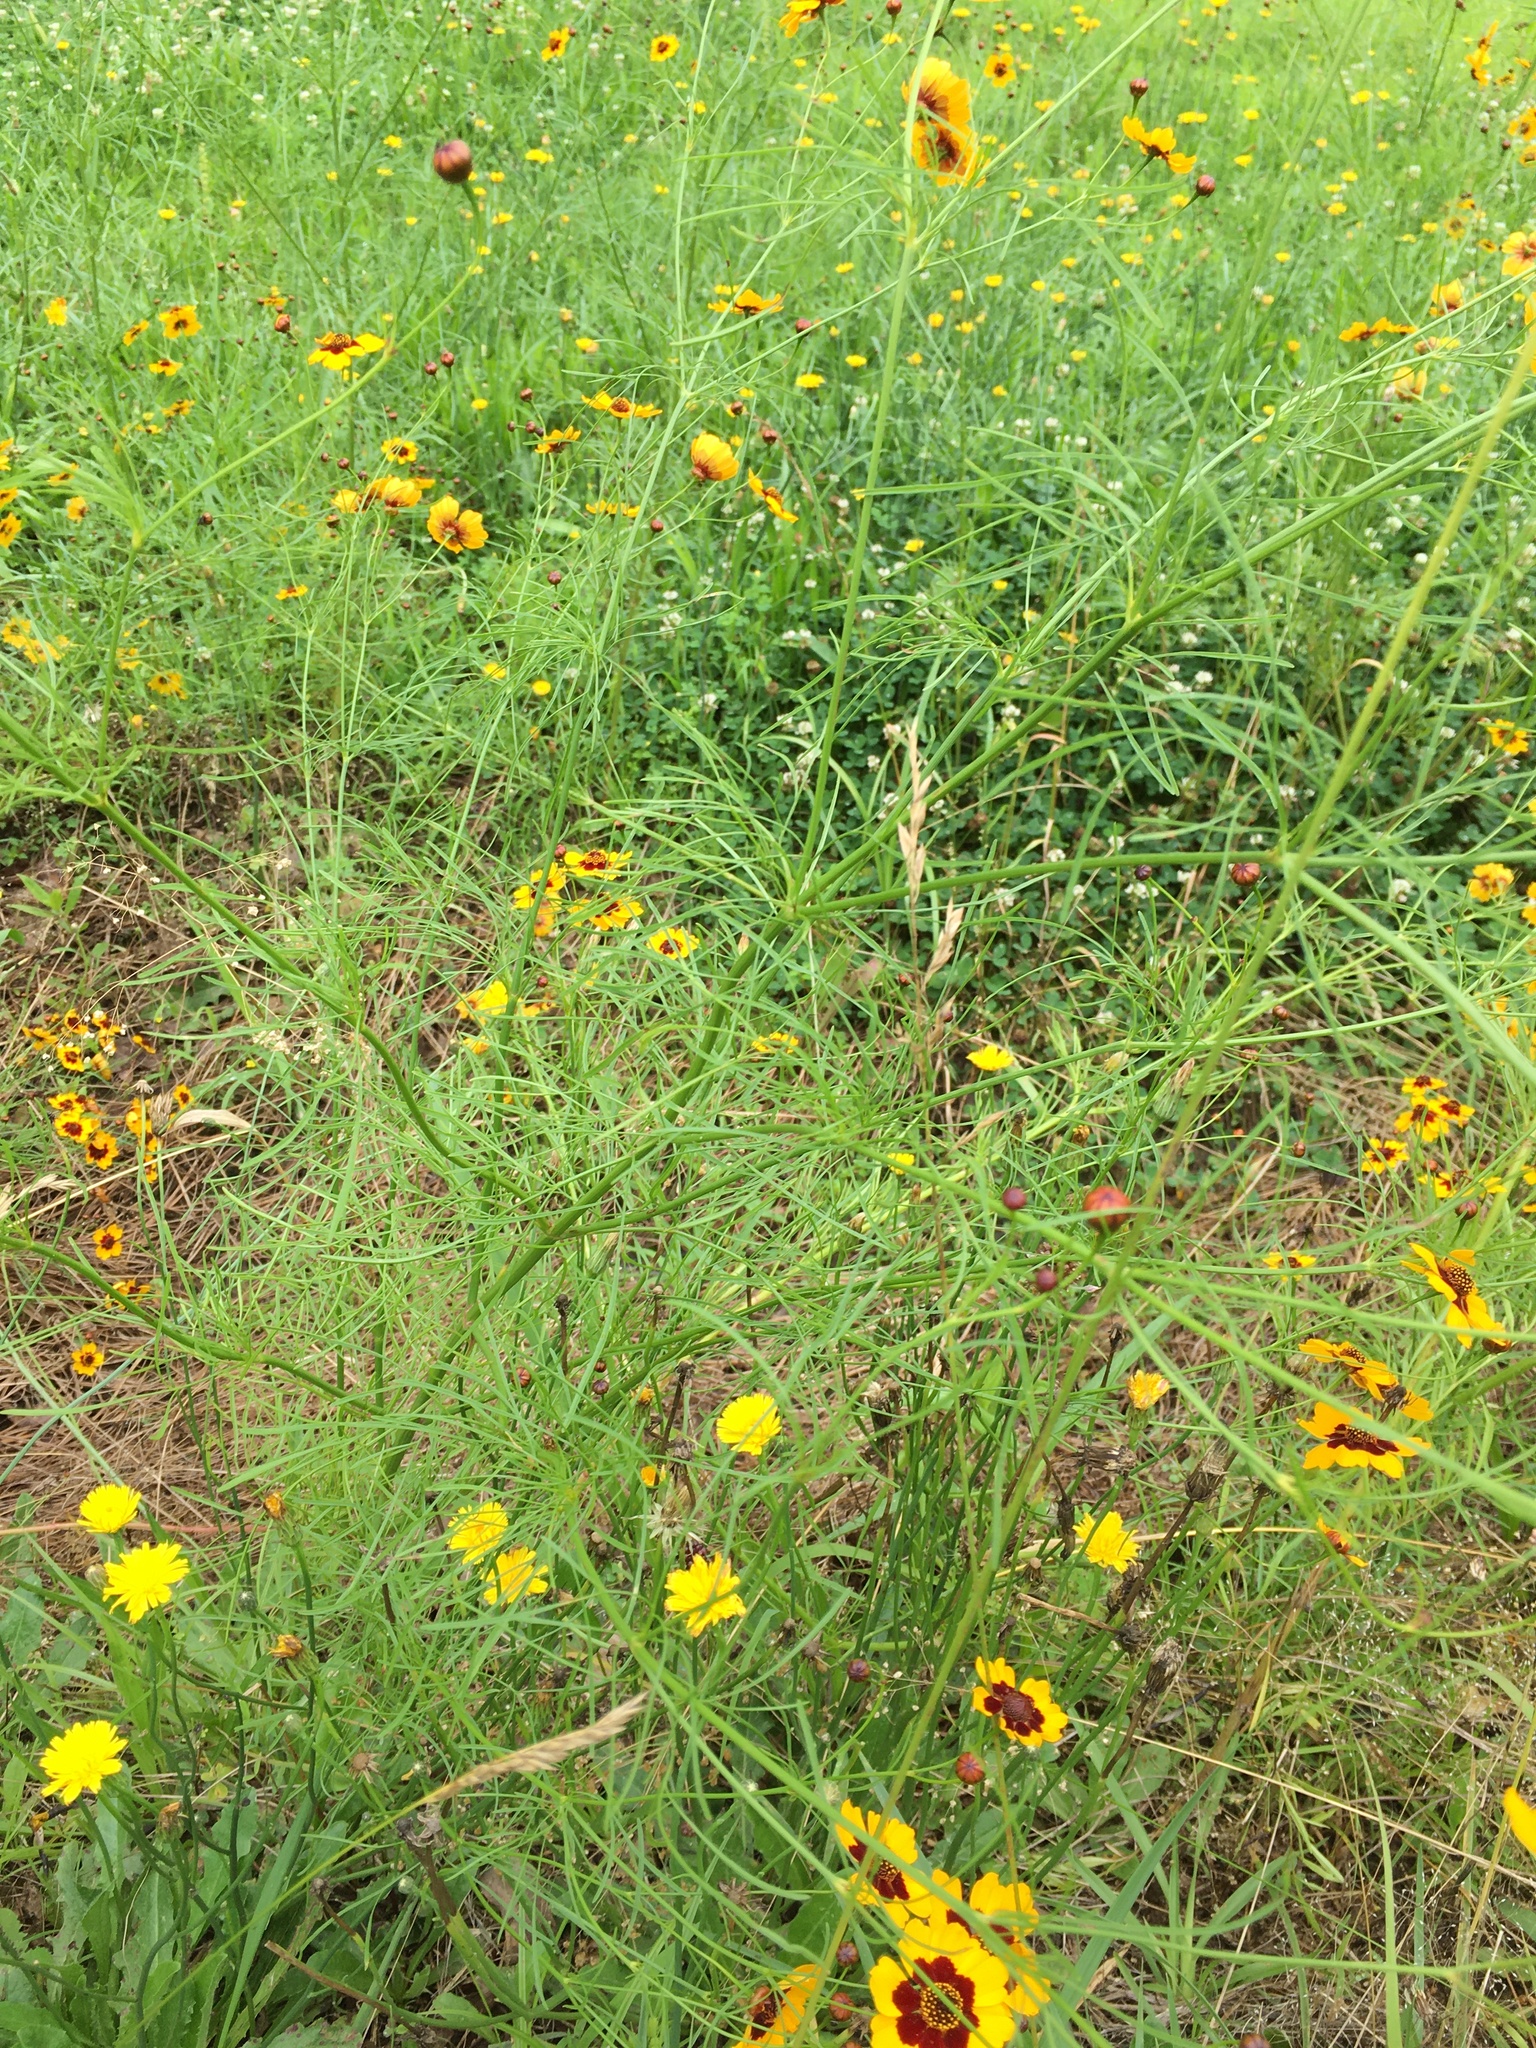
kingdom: Plantae
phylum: Tracheophyta
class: Magnoliopsida
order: Asterales
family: Asteraceae
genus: Coreopsis
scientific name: Coreopsis tinctoria
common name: Garden tickseed
